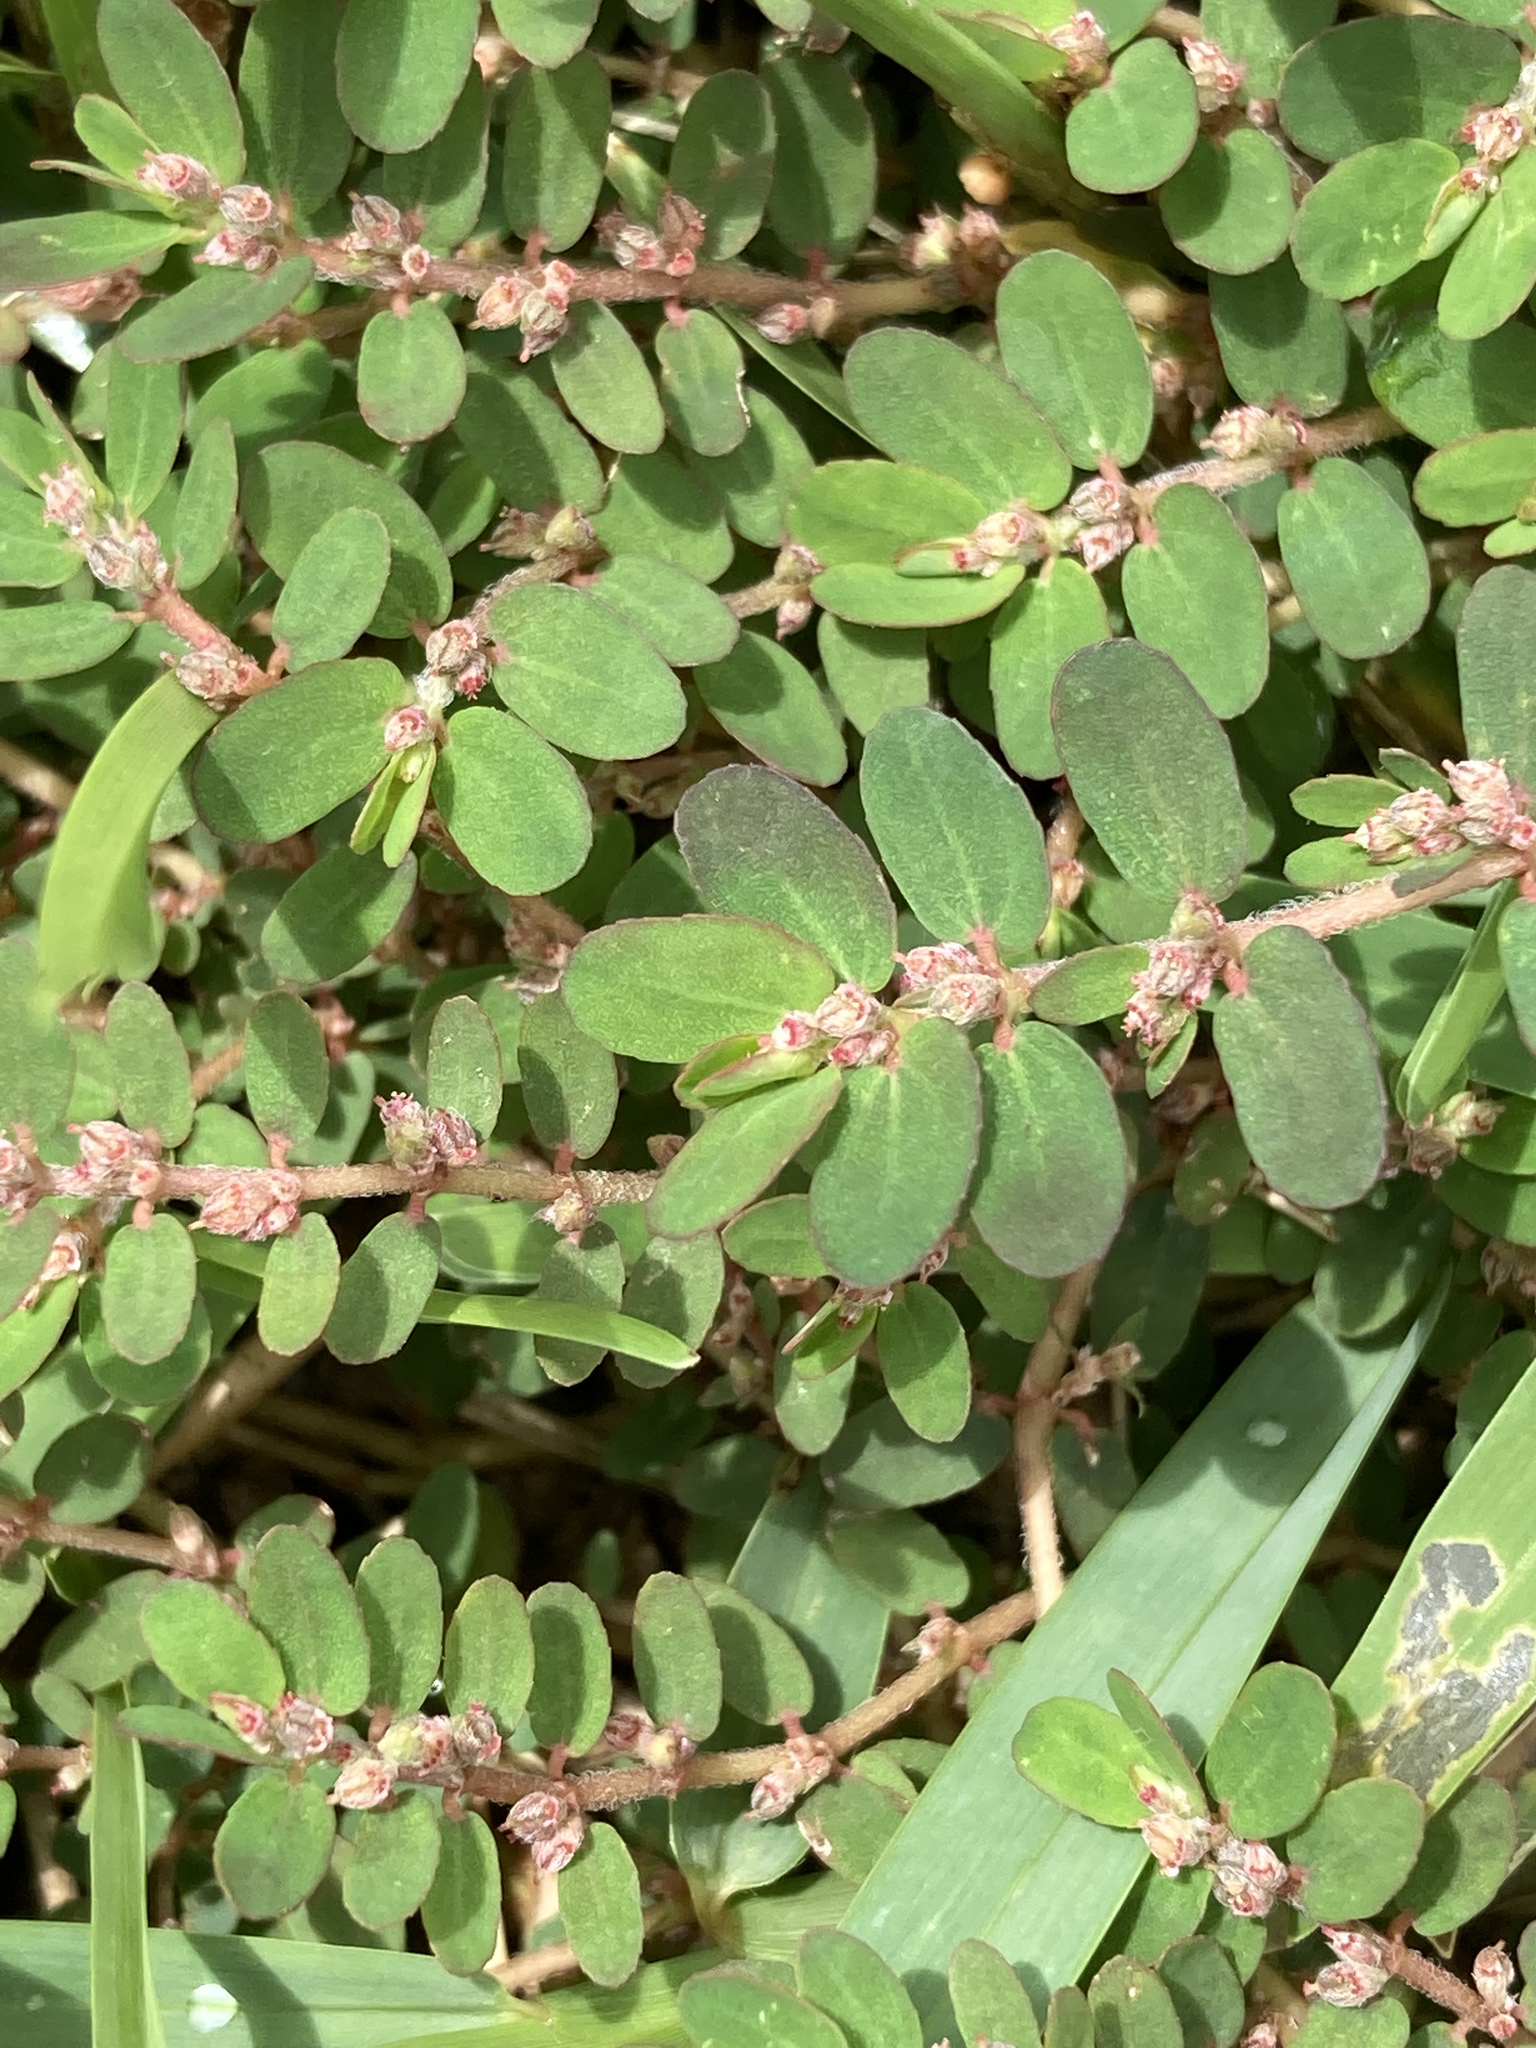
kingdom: Plantae
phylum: Tracheophyta
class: Magnoliopsida
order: Malpighiales
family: Euphorbiaceae
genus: Euphorbia
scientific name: Euphorbia thymifolia
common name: Gulf sandmat
